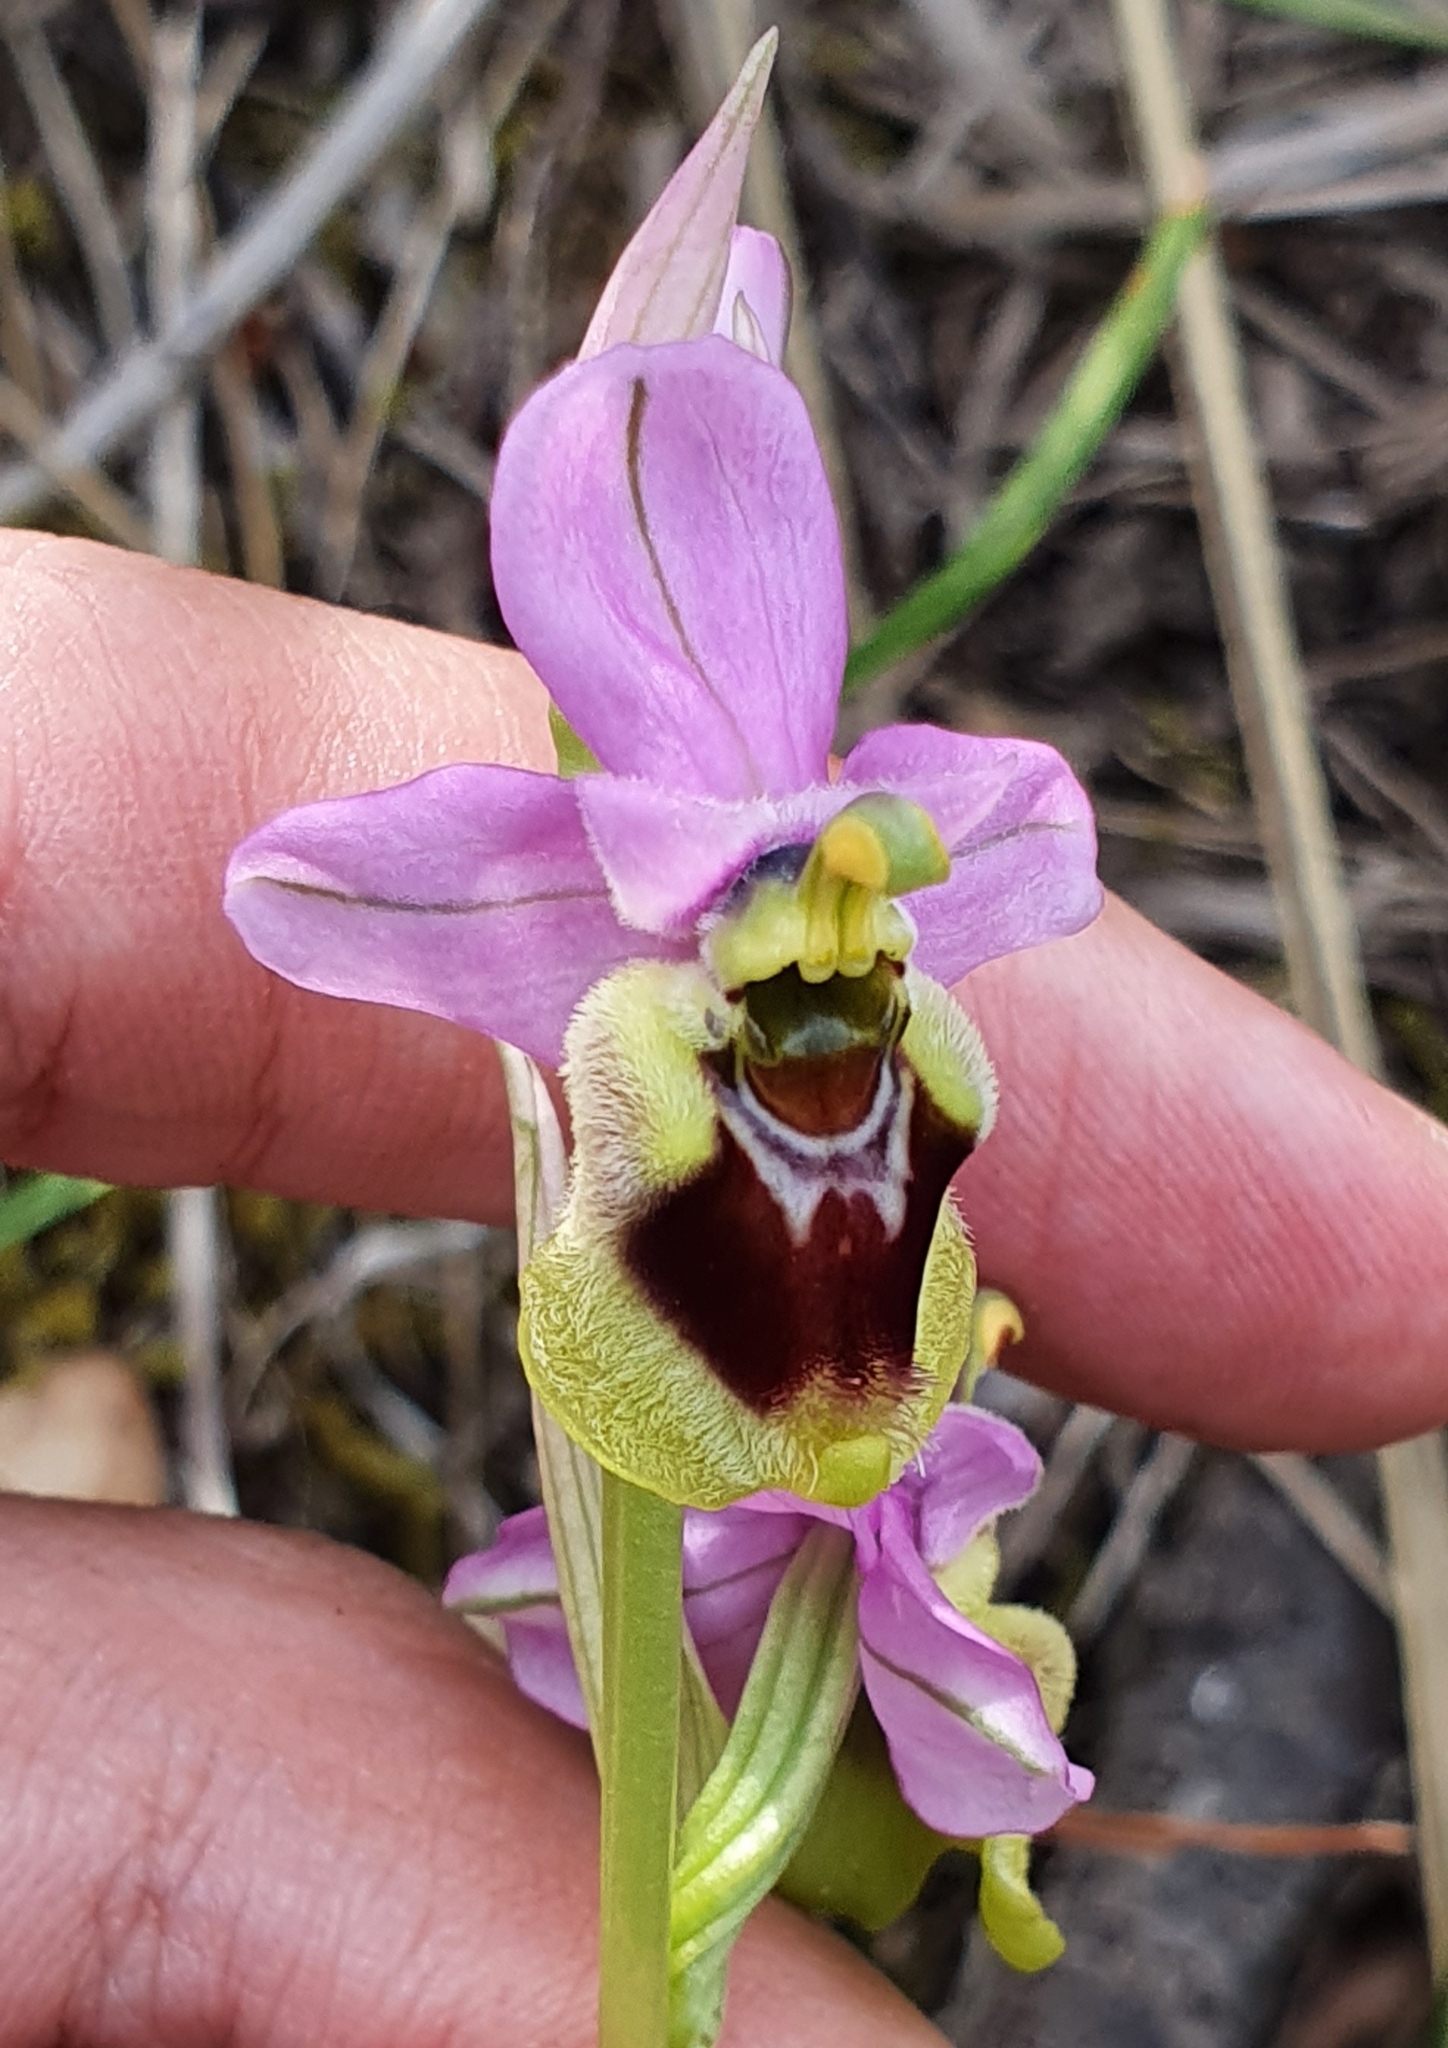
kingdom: Plantae
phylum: Tracheophyta
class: Liliopsida
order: Asparagales
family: Orchidaceae
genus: Ophrys
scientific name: Ophrys tenthredinifera
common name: Sawfly orchid
